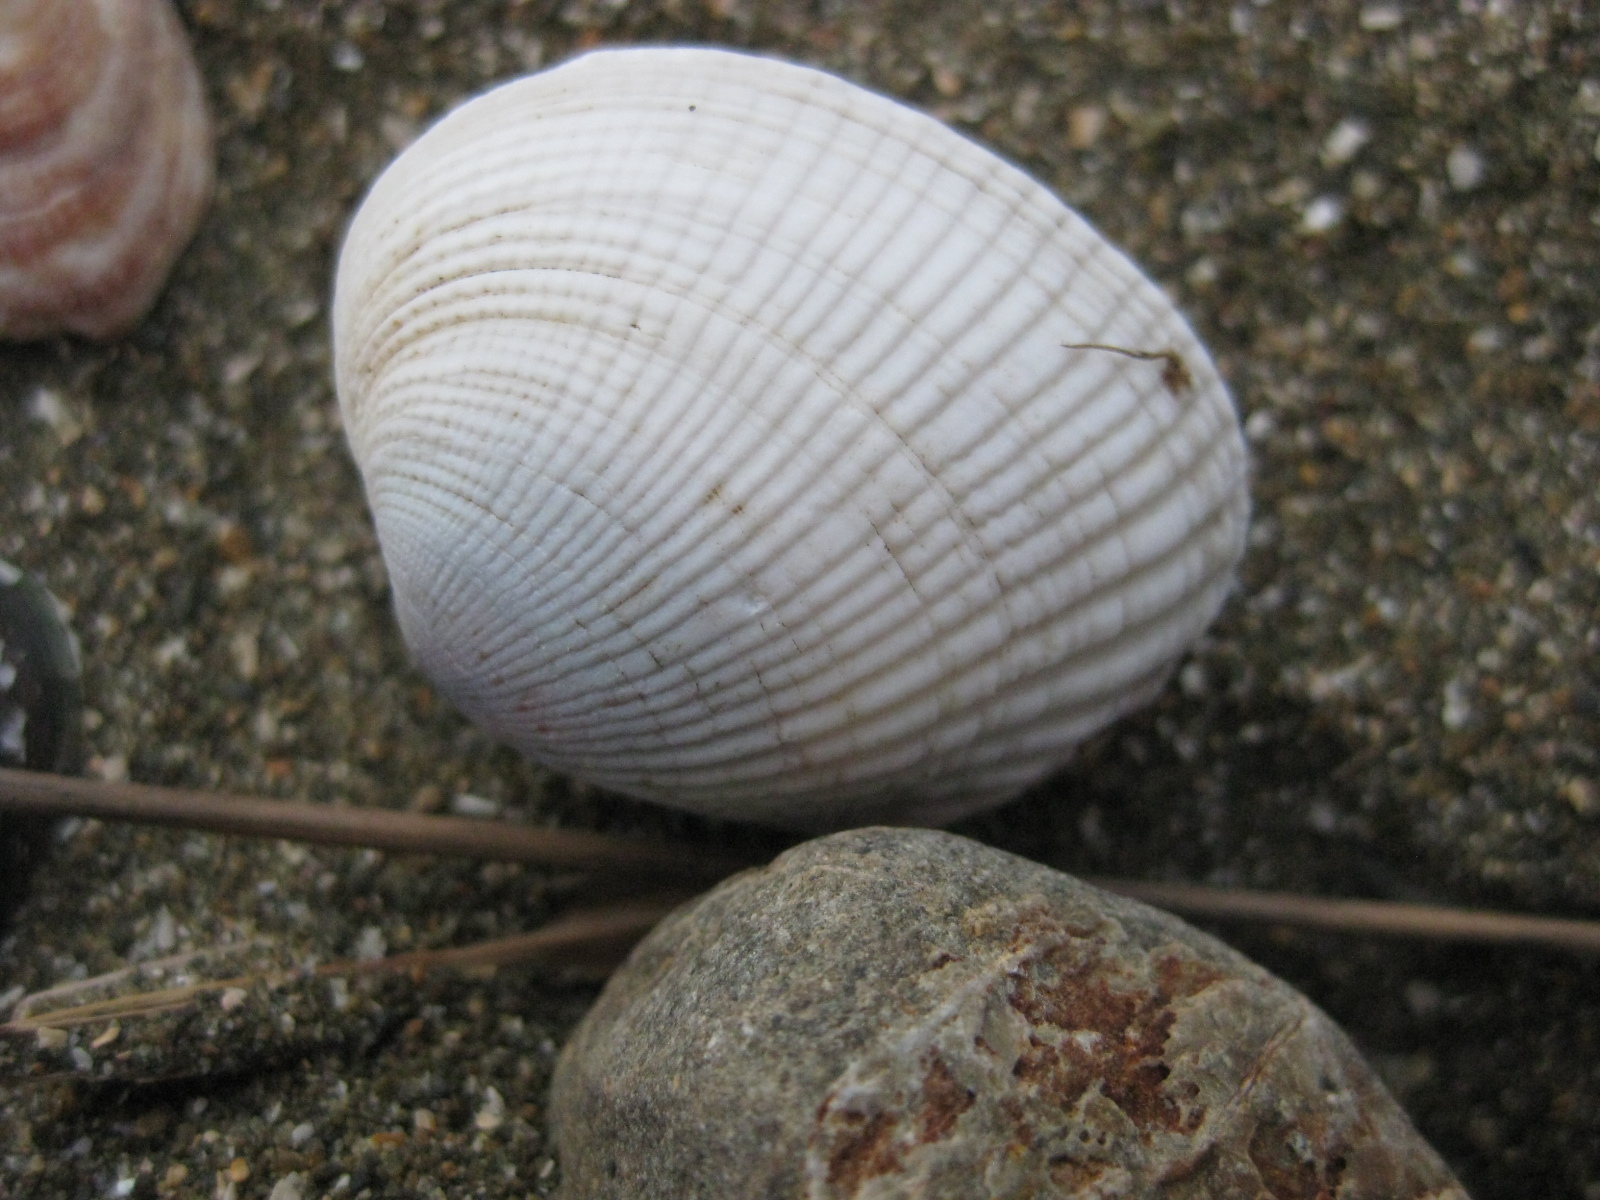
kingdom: Animalia
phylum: Mollusca
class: Bivalvia
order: Venerida
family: Veneridae
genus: Leukoma
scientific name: Leukoma crassicosta
